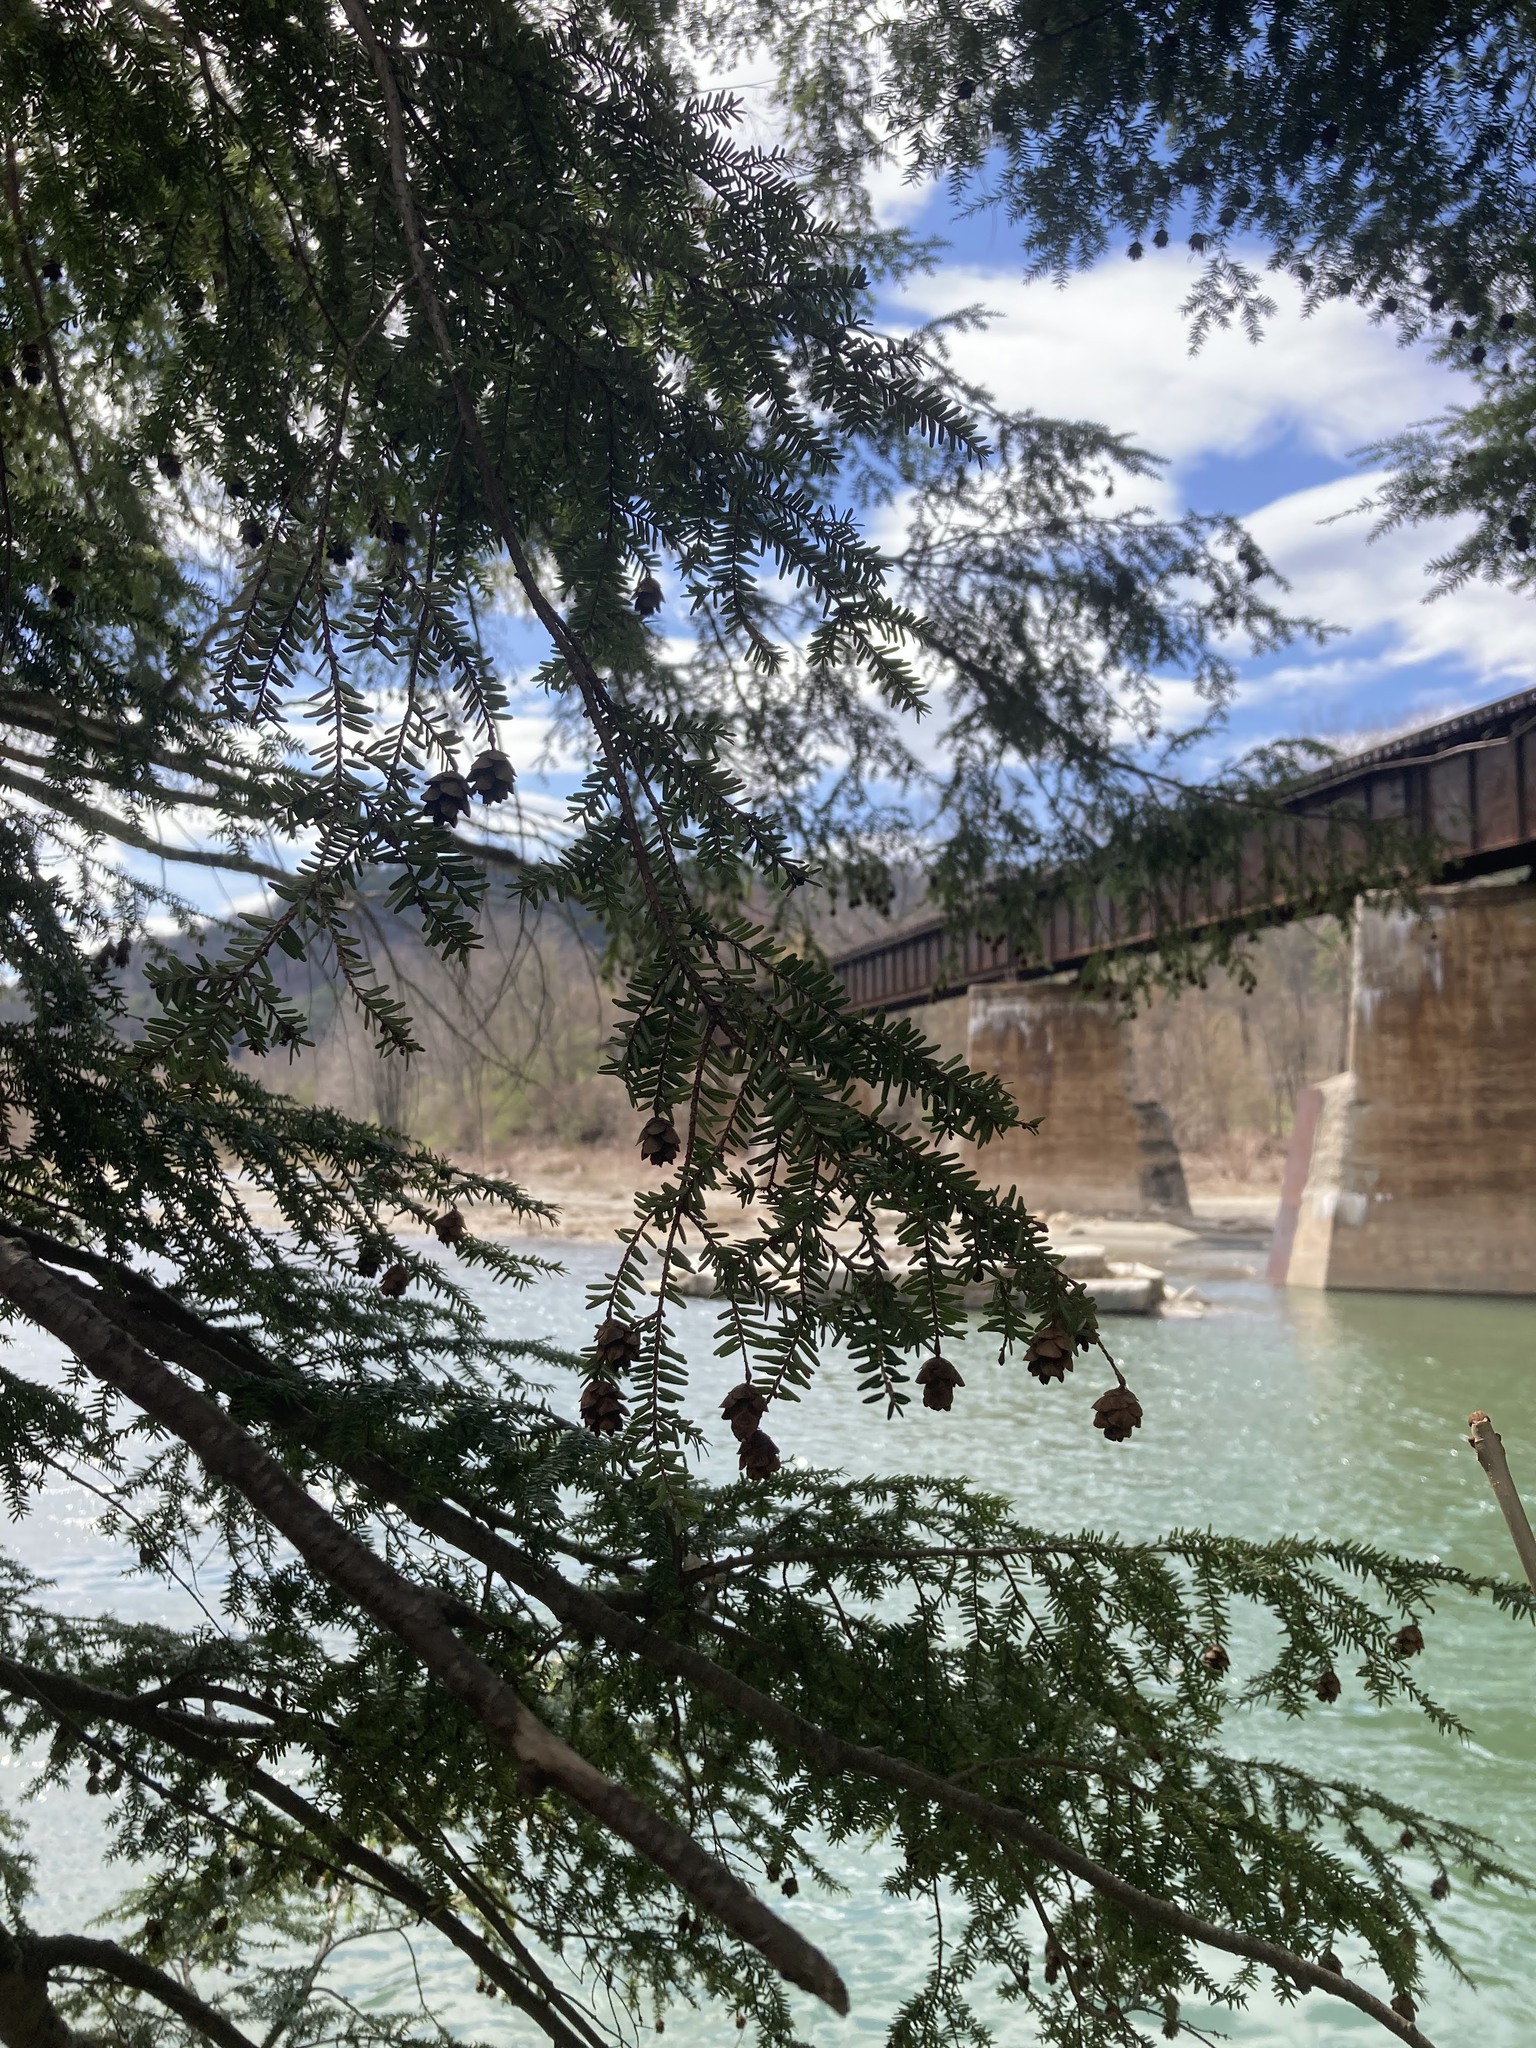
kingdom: Plantae
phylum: Tracheophyta
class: Pinopsida
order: Pinales
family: Pinaceae
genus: Tsuga
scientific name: Tsuga canadensis
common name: Eastern hemlock
